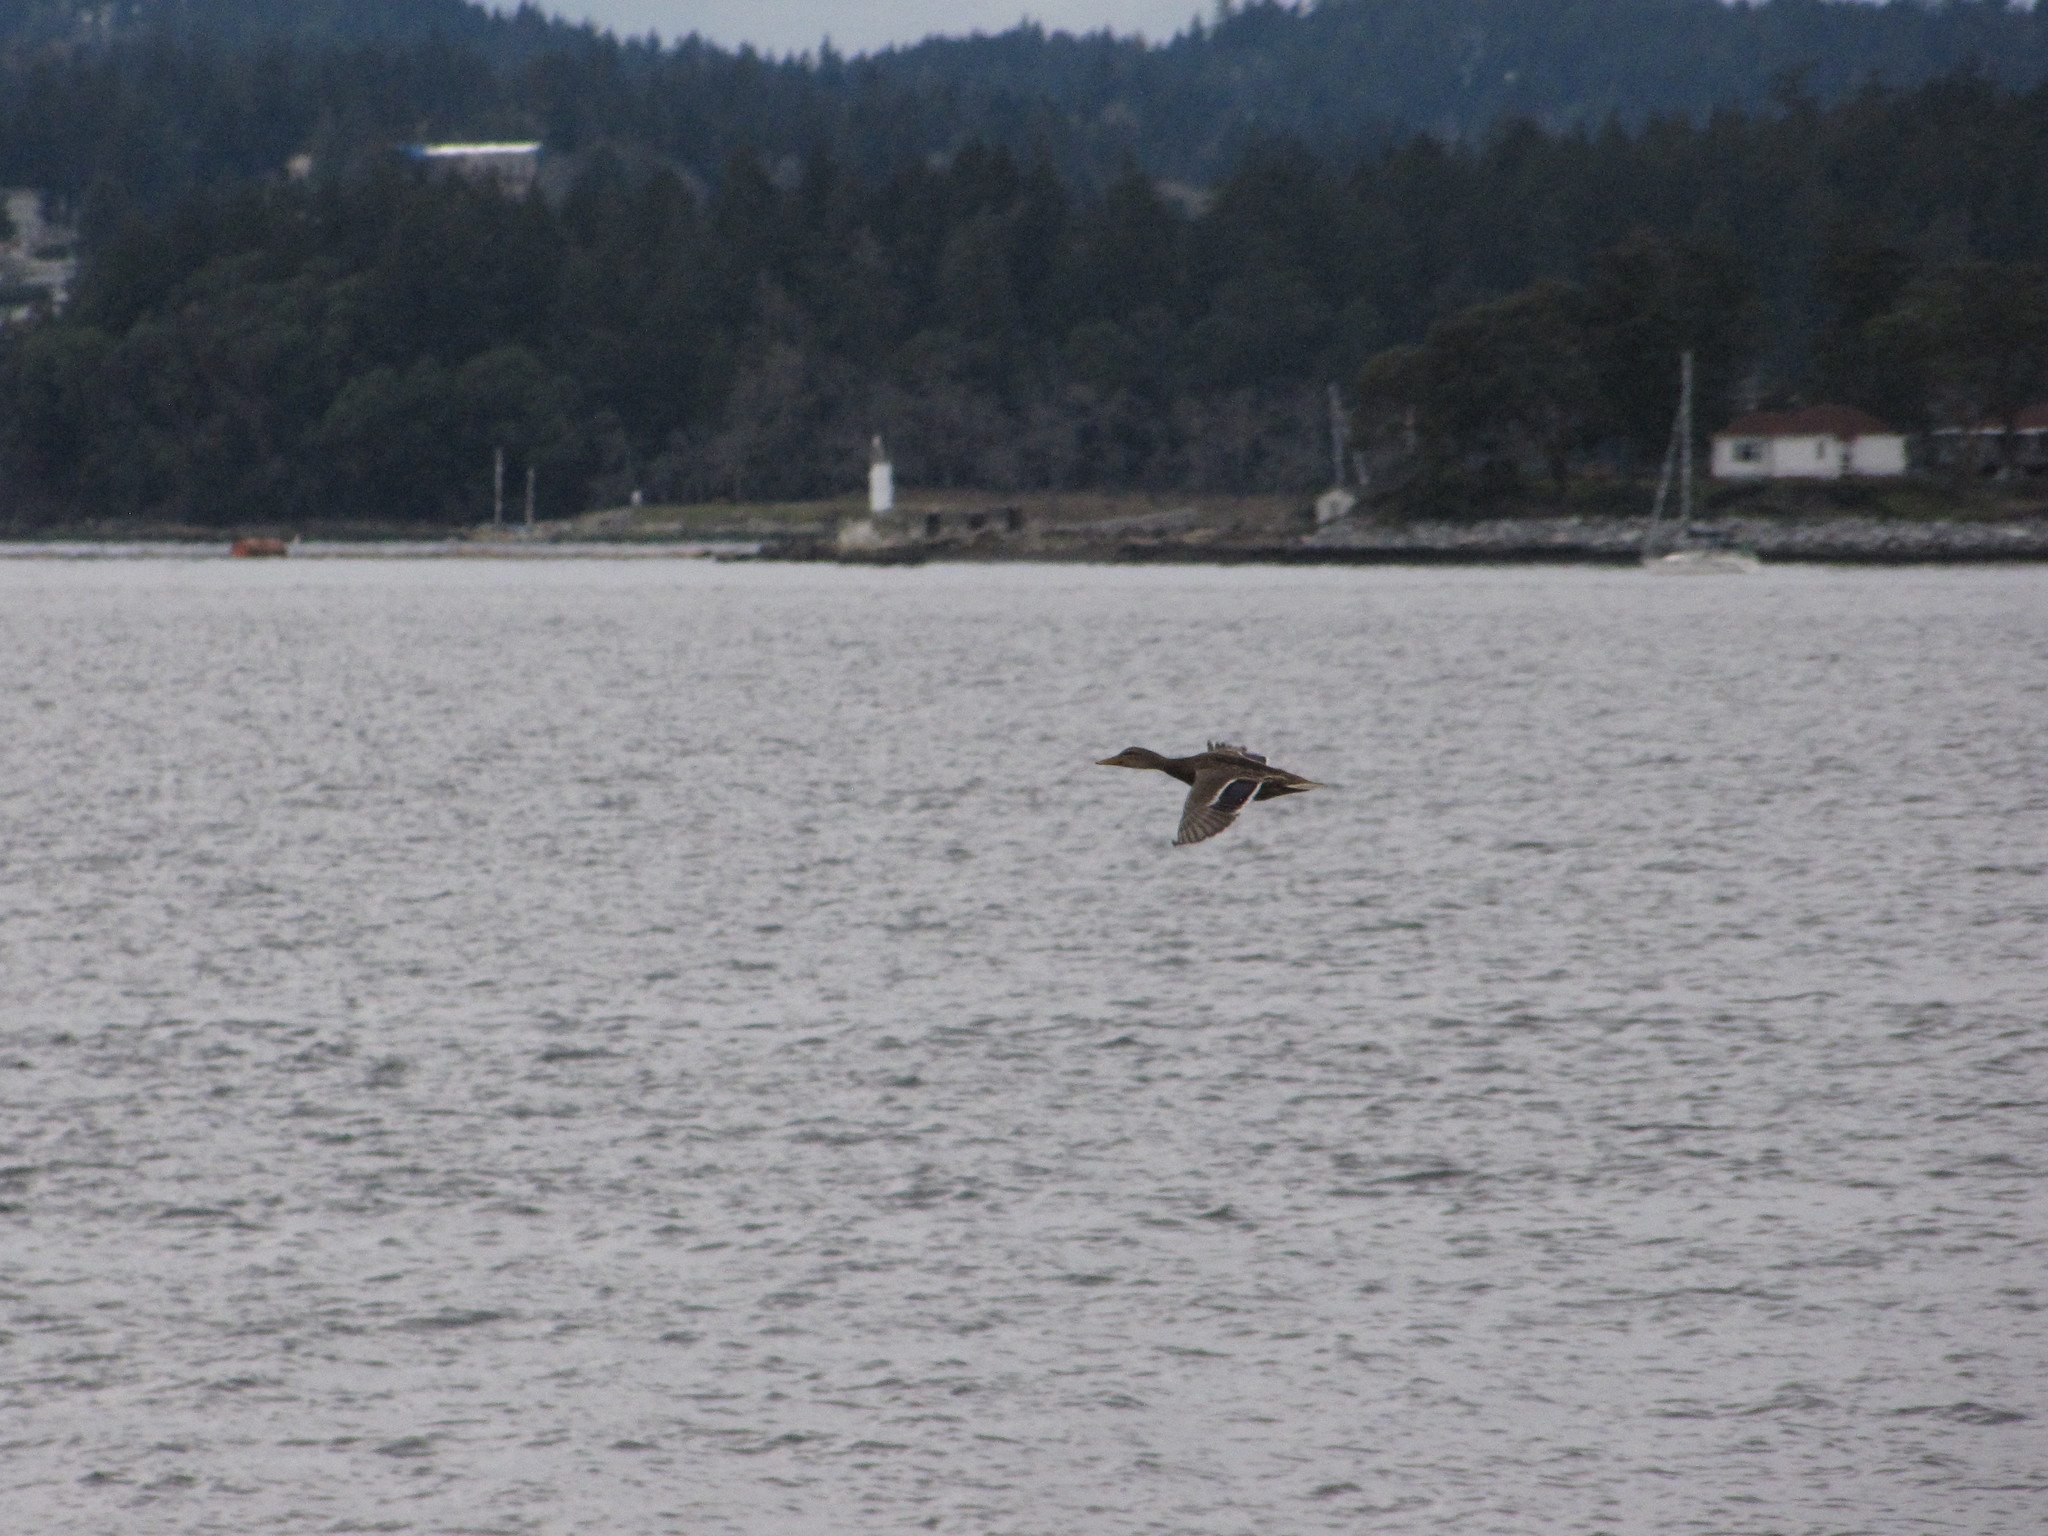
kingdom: Animalia
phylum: Chordata
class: Aves
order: Anseriformes
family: Anatidae
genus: Anas
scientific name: Anas platyrhynchos
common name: Mallard
